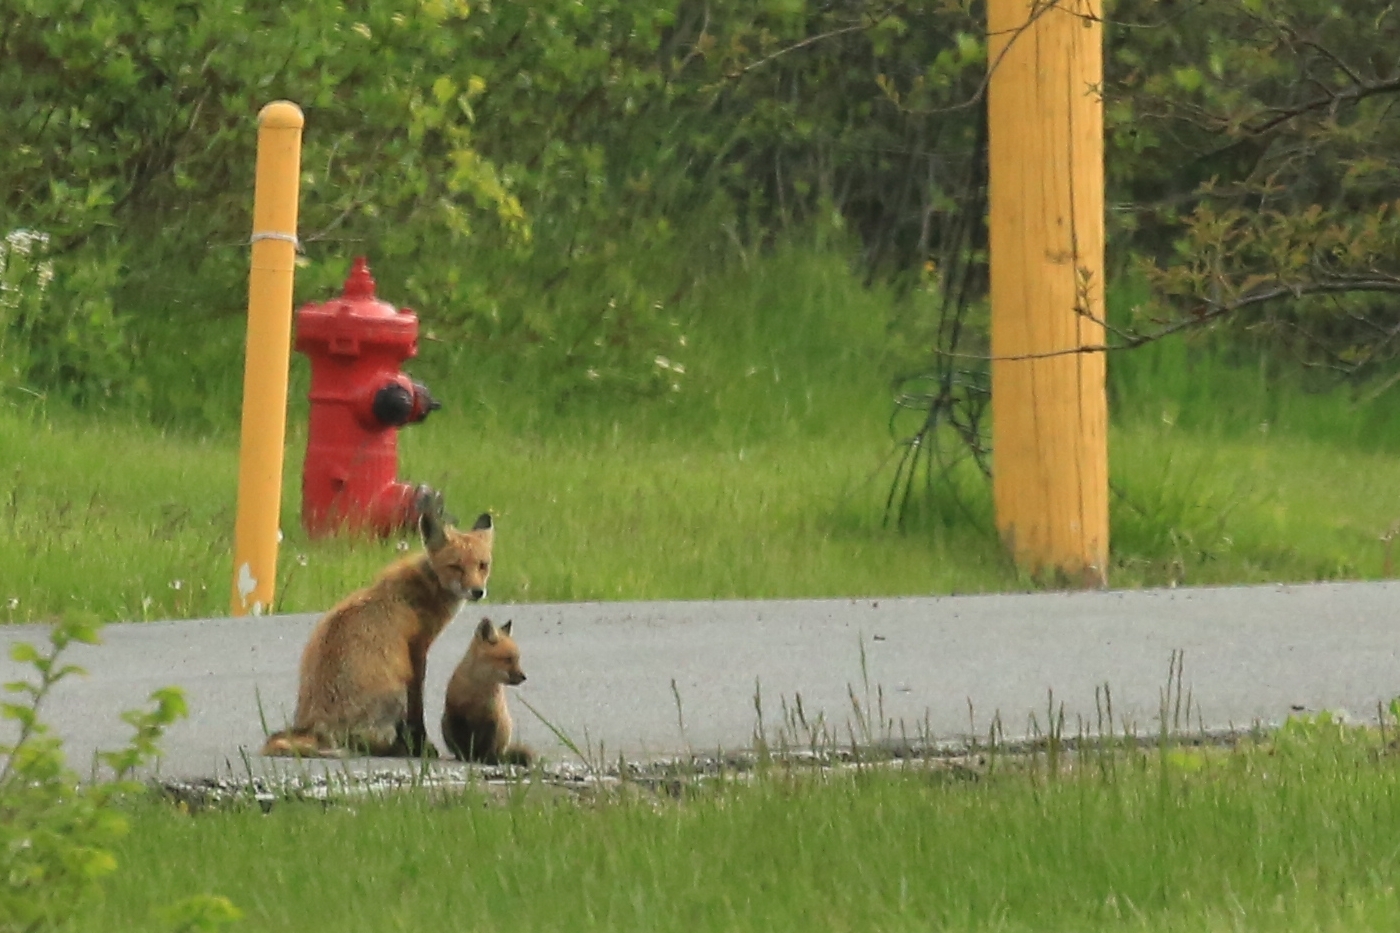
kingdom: Animalia
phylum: Chordata
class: Mammalia
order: Carnivora
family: Canidae
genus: Vulpes
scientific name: Vulpes vulpes
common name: Red fox
